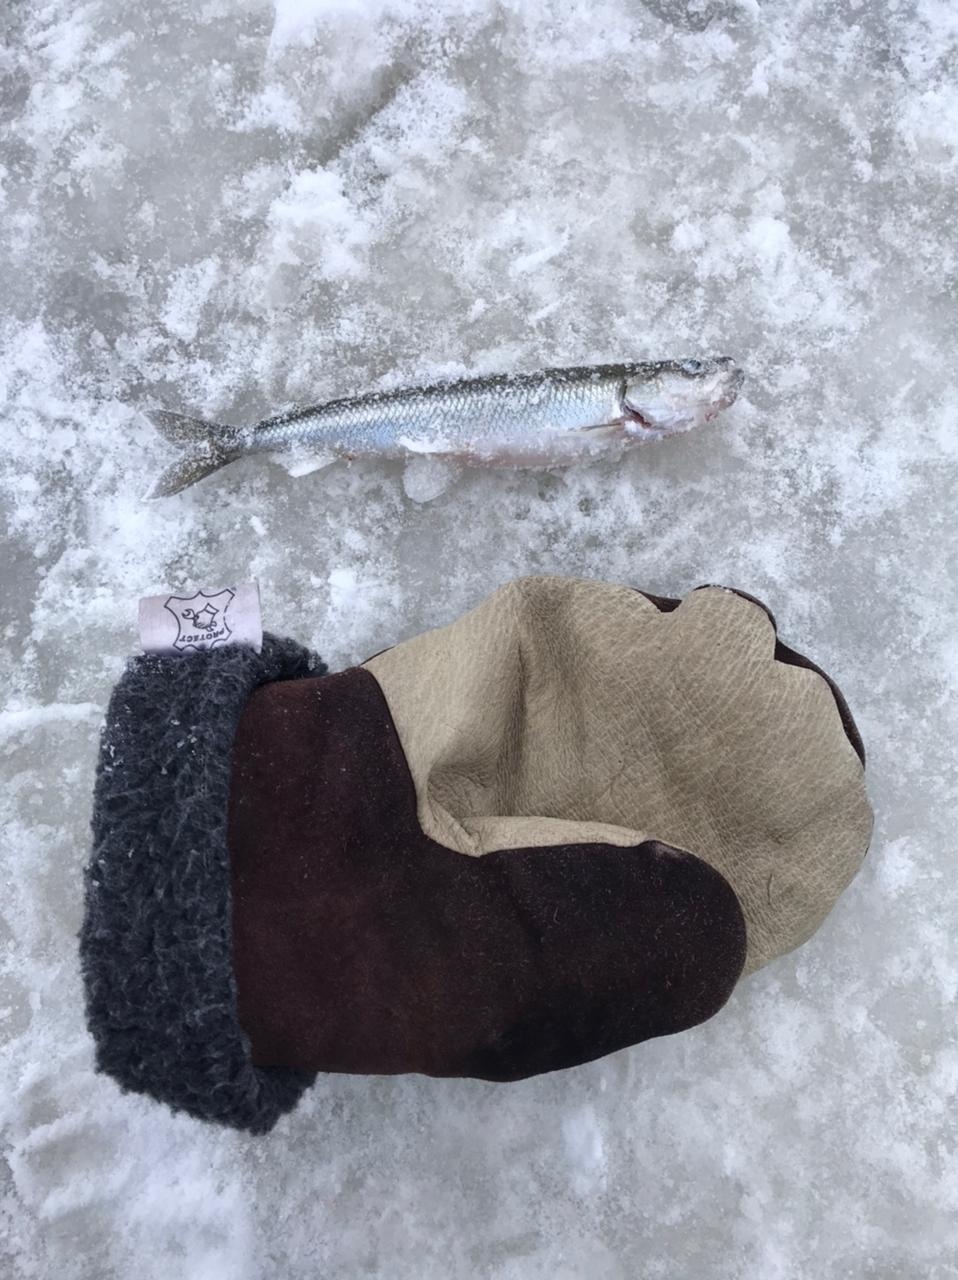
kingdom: Animalia
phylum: Chordata
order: Osmeriformes
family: Osmeridae
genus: Osmerus
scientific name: Osmerus eperlanus
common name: Smelt
